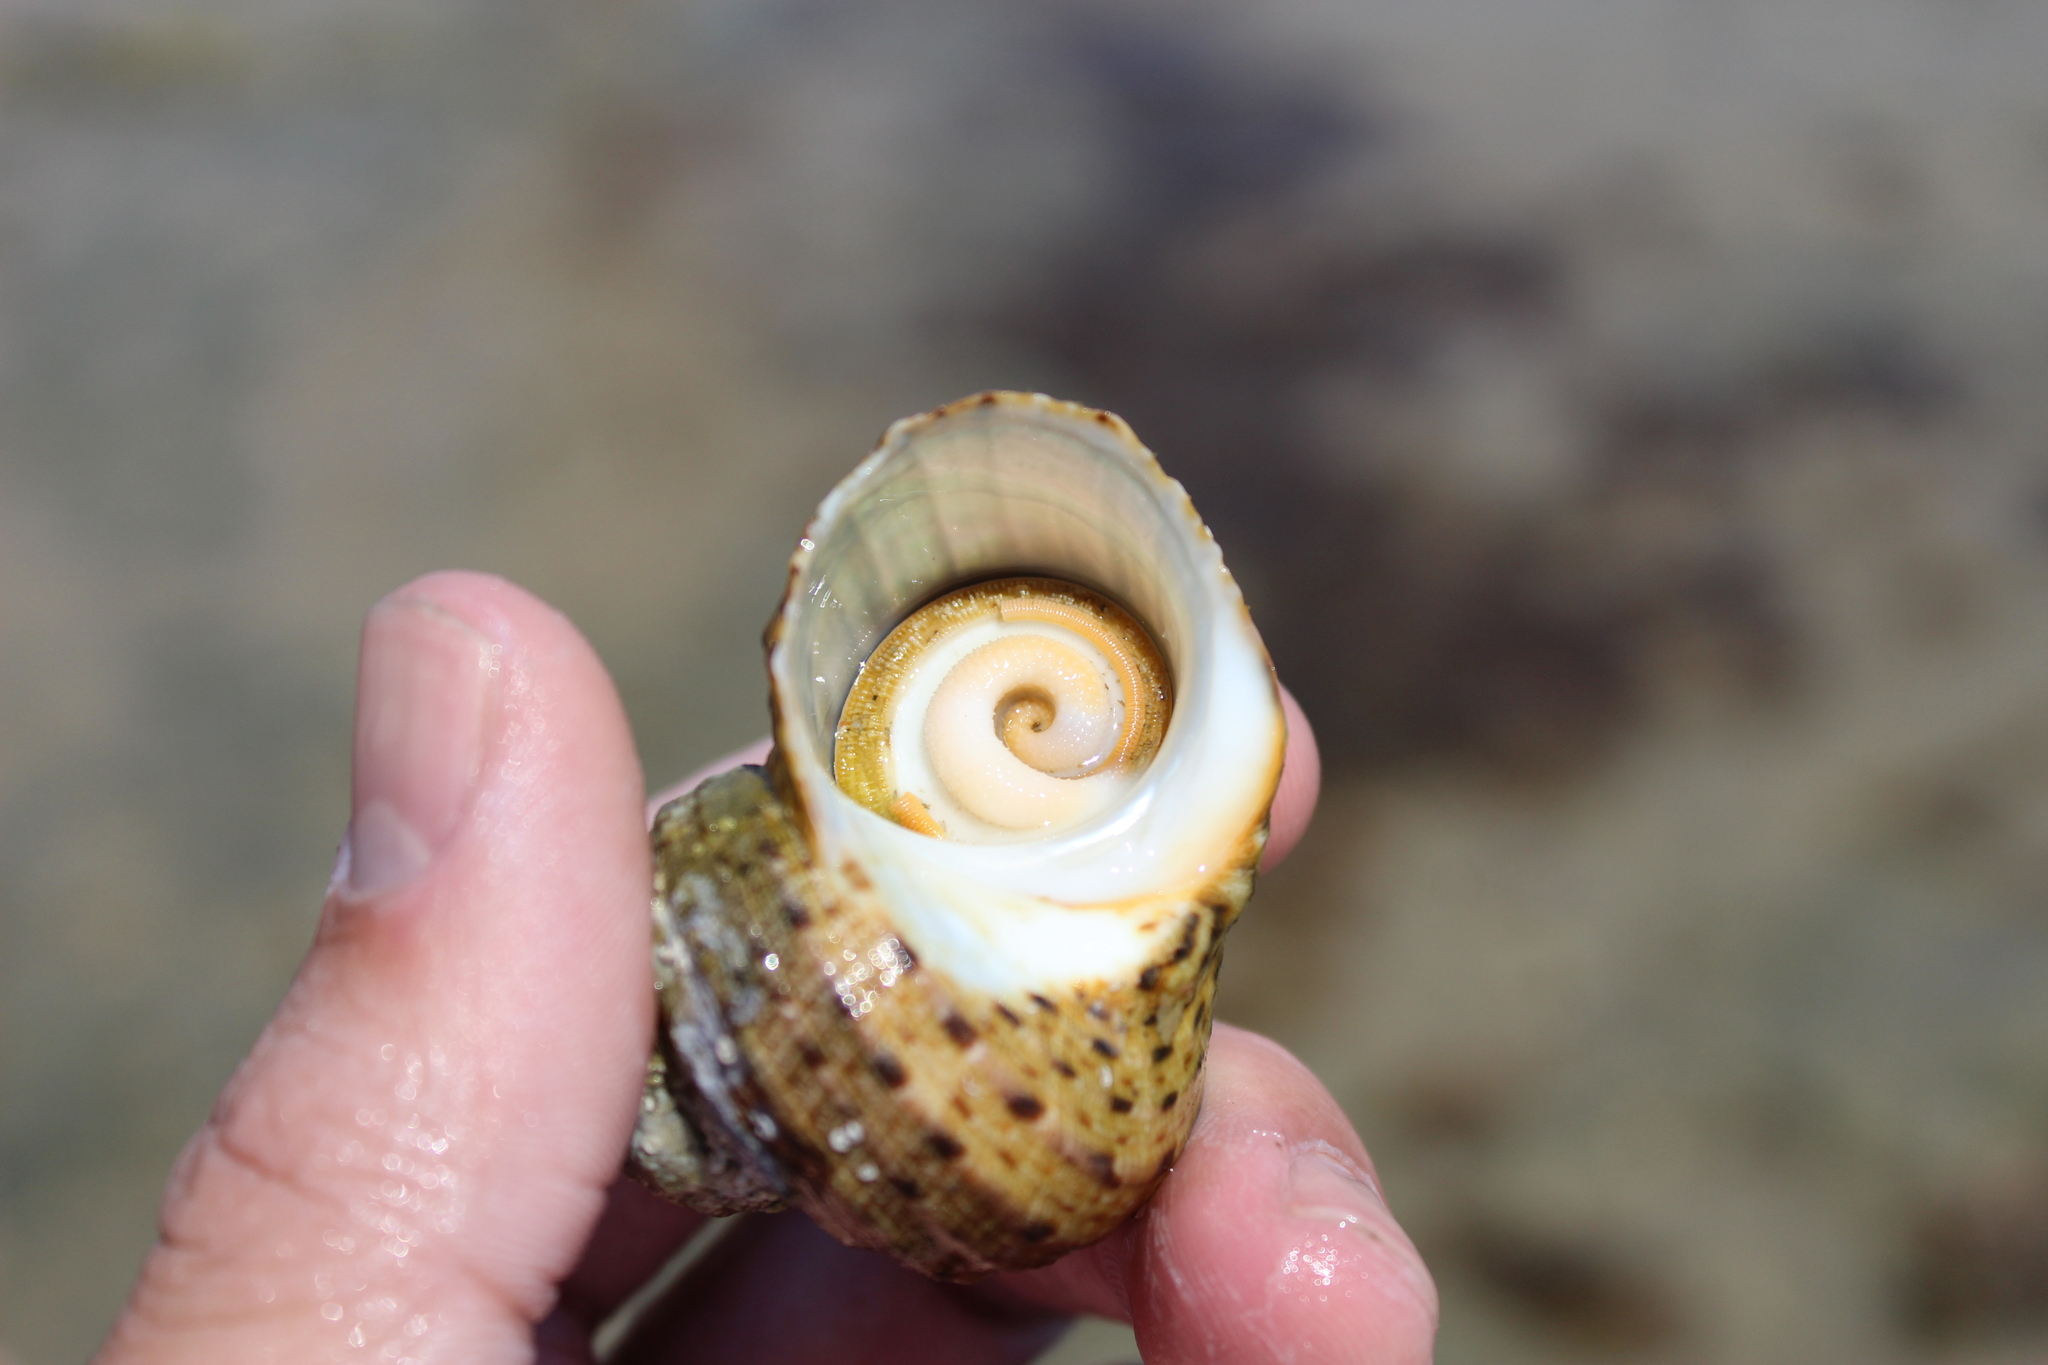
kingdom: Animalia
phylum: Mollusca
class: Gastropoda
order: Trochida
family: Turbinidae
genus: Turbo
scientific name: Turbo fluctuosus
